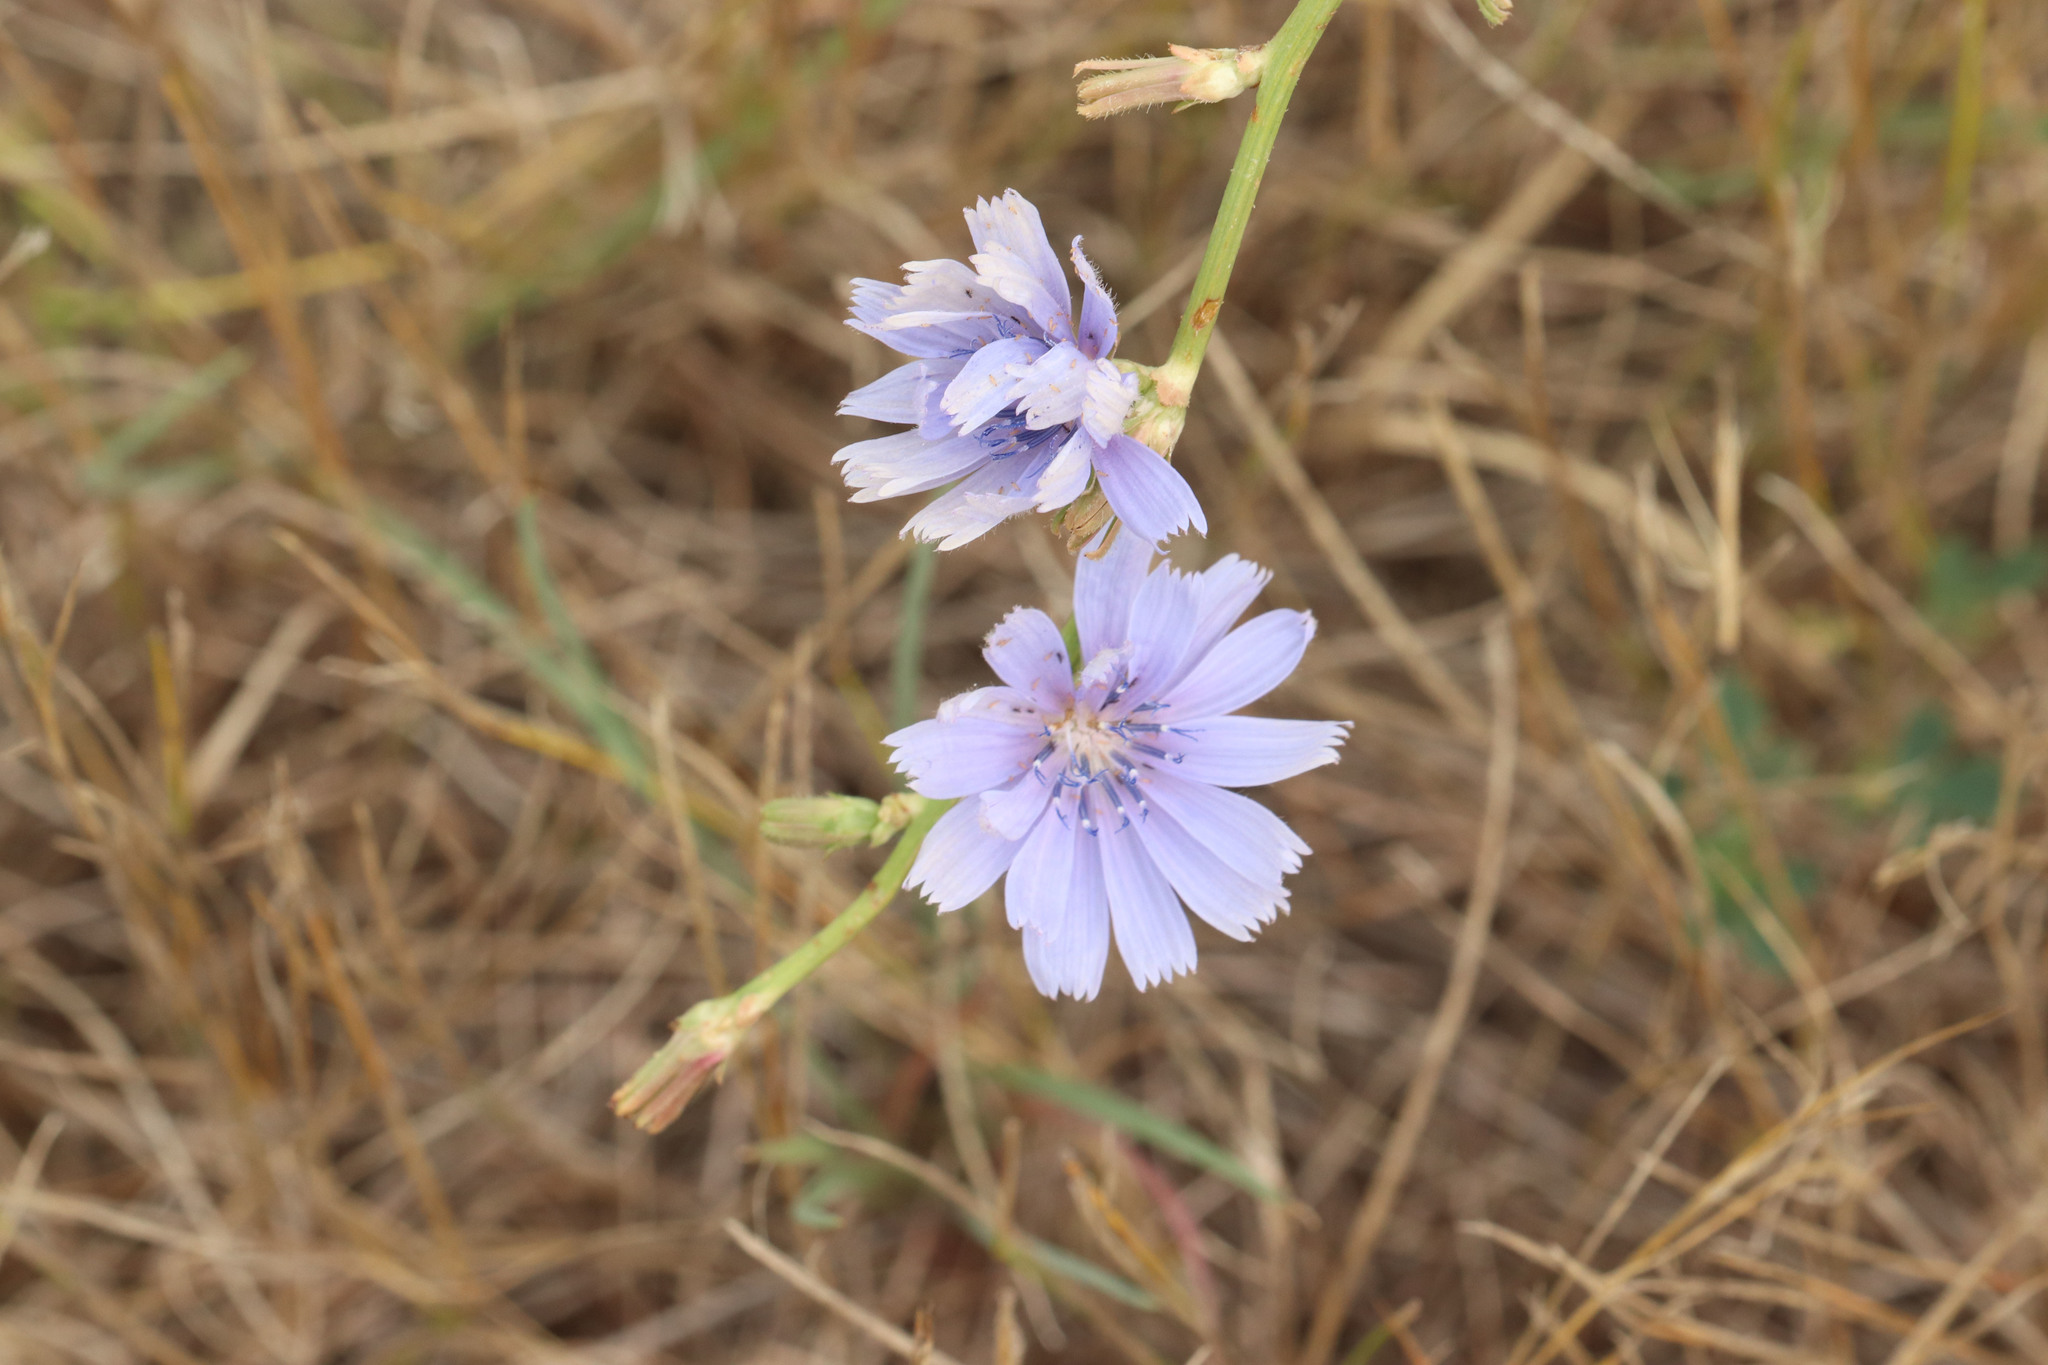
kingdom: Plantae
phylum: Tracheophyta
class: Magnoliopsida
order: Asterales
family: Asteraceae
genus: Cichorium
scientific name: Cichorium intybus
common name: Chicory
